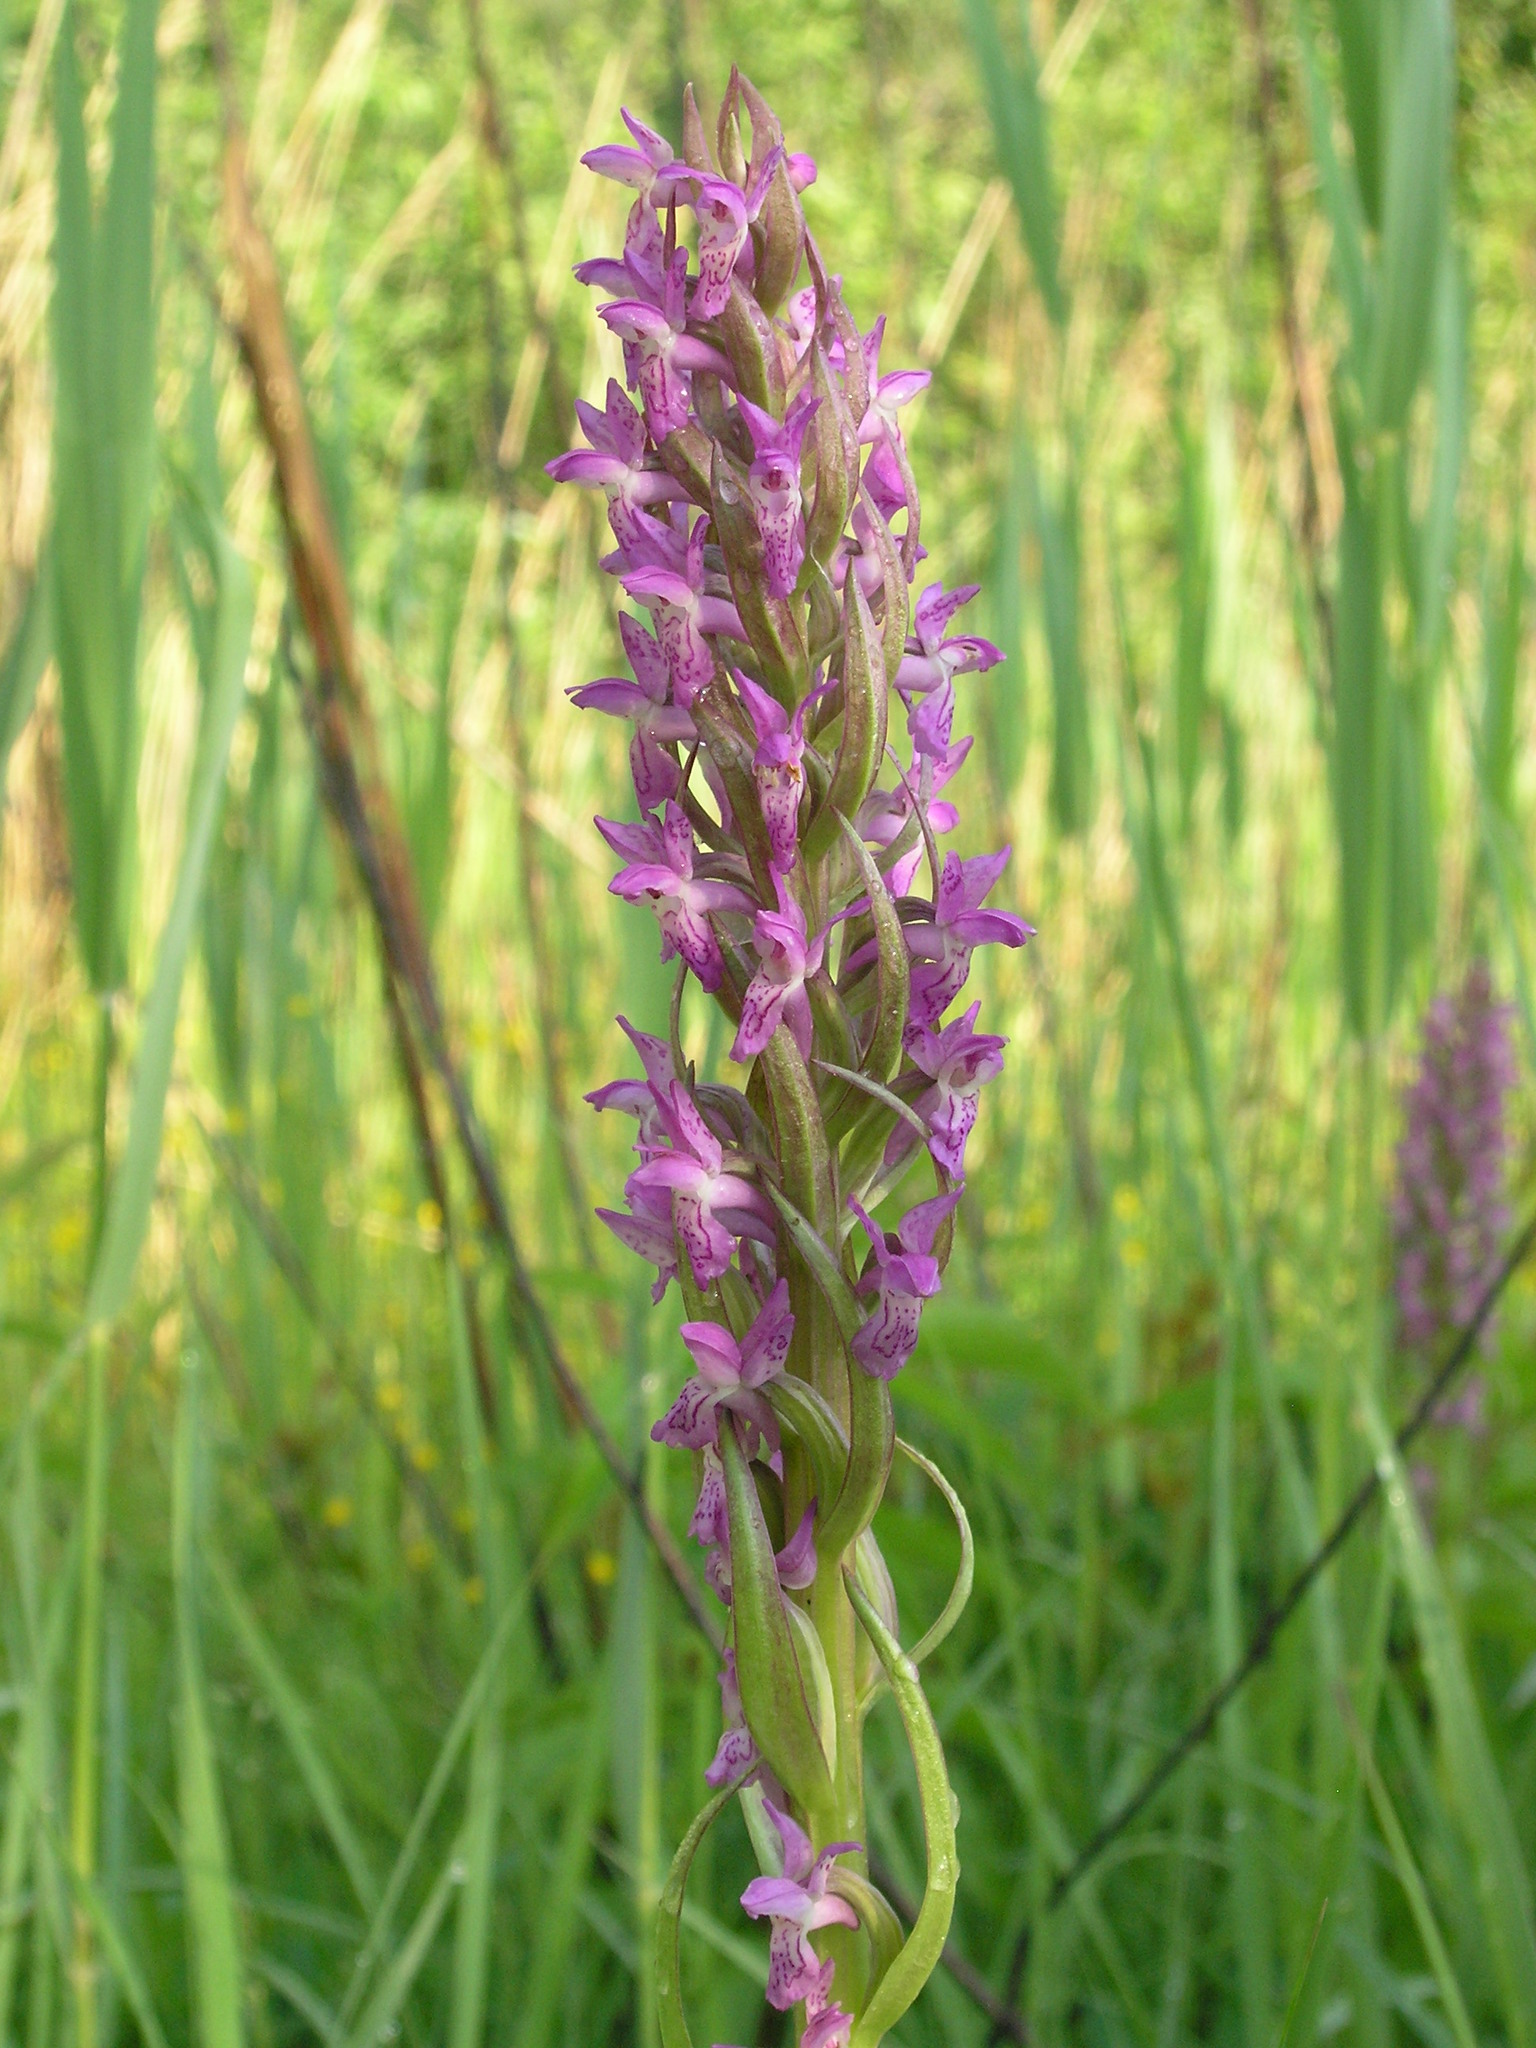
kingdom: Plantae
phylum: Tracheophyta
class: Liliopsida
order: Asparagales
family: Orchidaceae
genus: Dactylorhiza
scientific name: Dactylorhiza incarnata
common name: Early marsh-orchid
